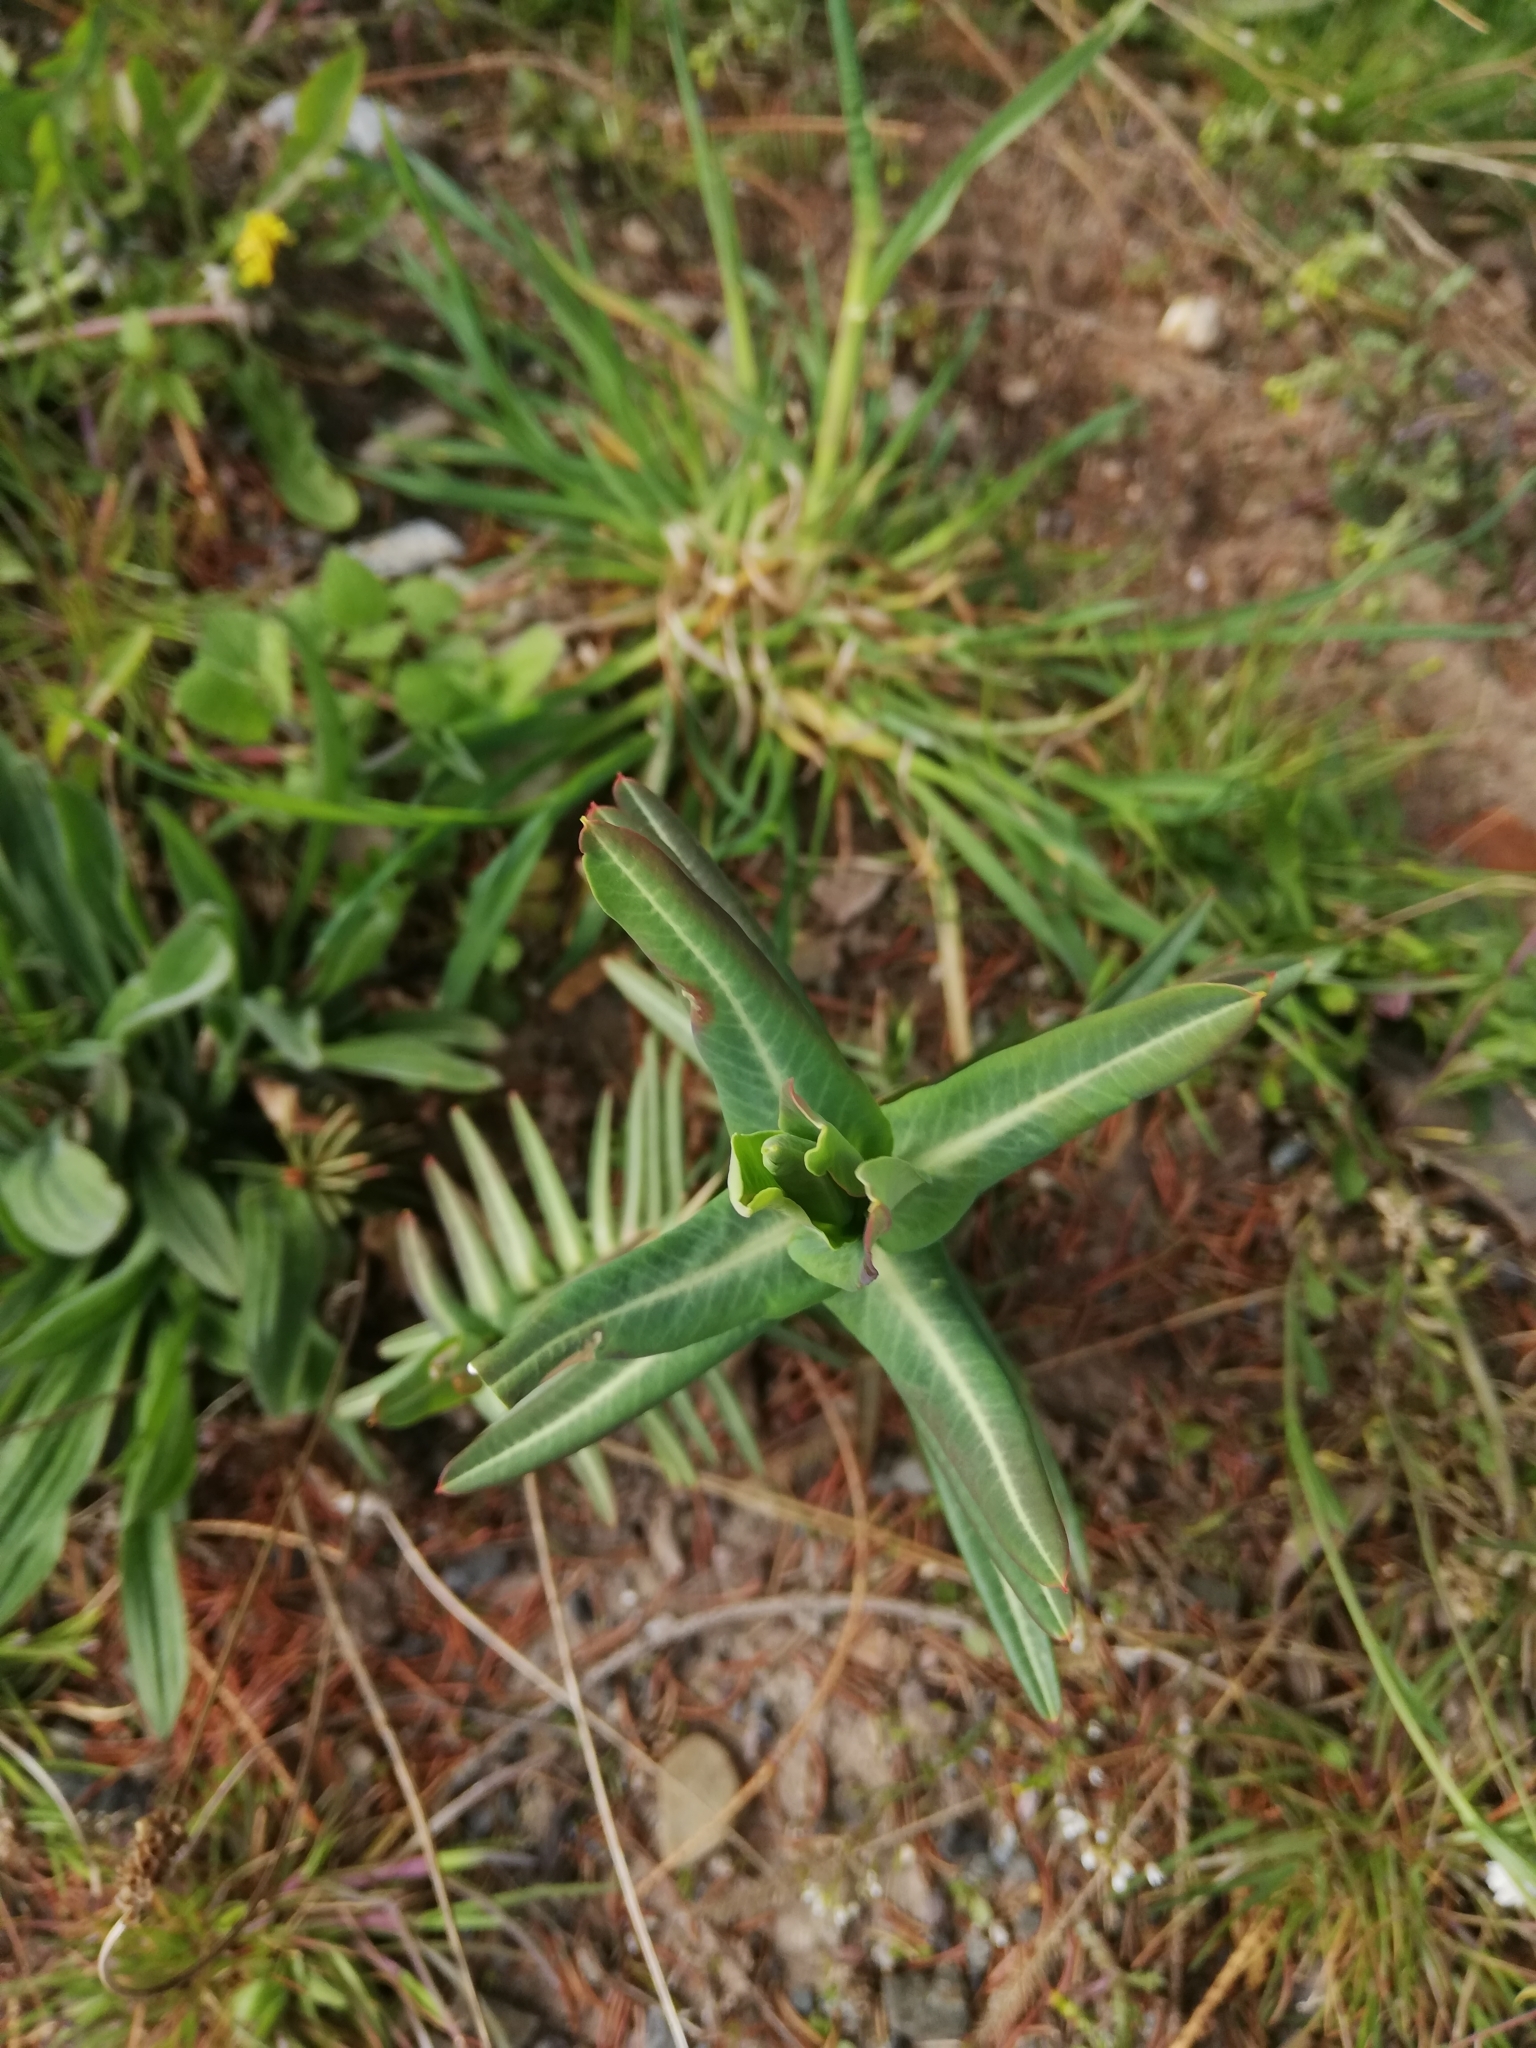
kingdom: Plantae
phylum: Tracheophyta
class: Magnoliopsida
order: Malpighiales
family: Euphorbiaceae
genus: Euphorbia
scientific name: Euphorbia lathyris
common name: Caper spurge
